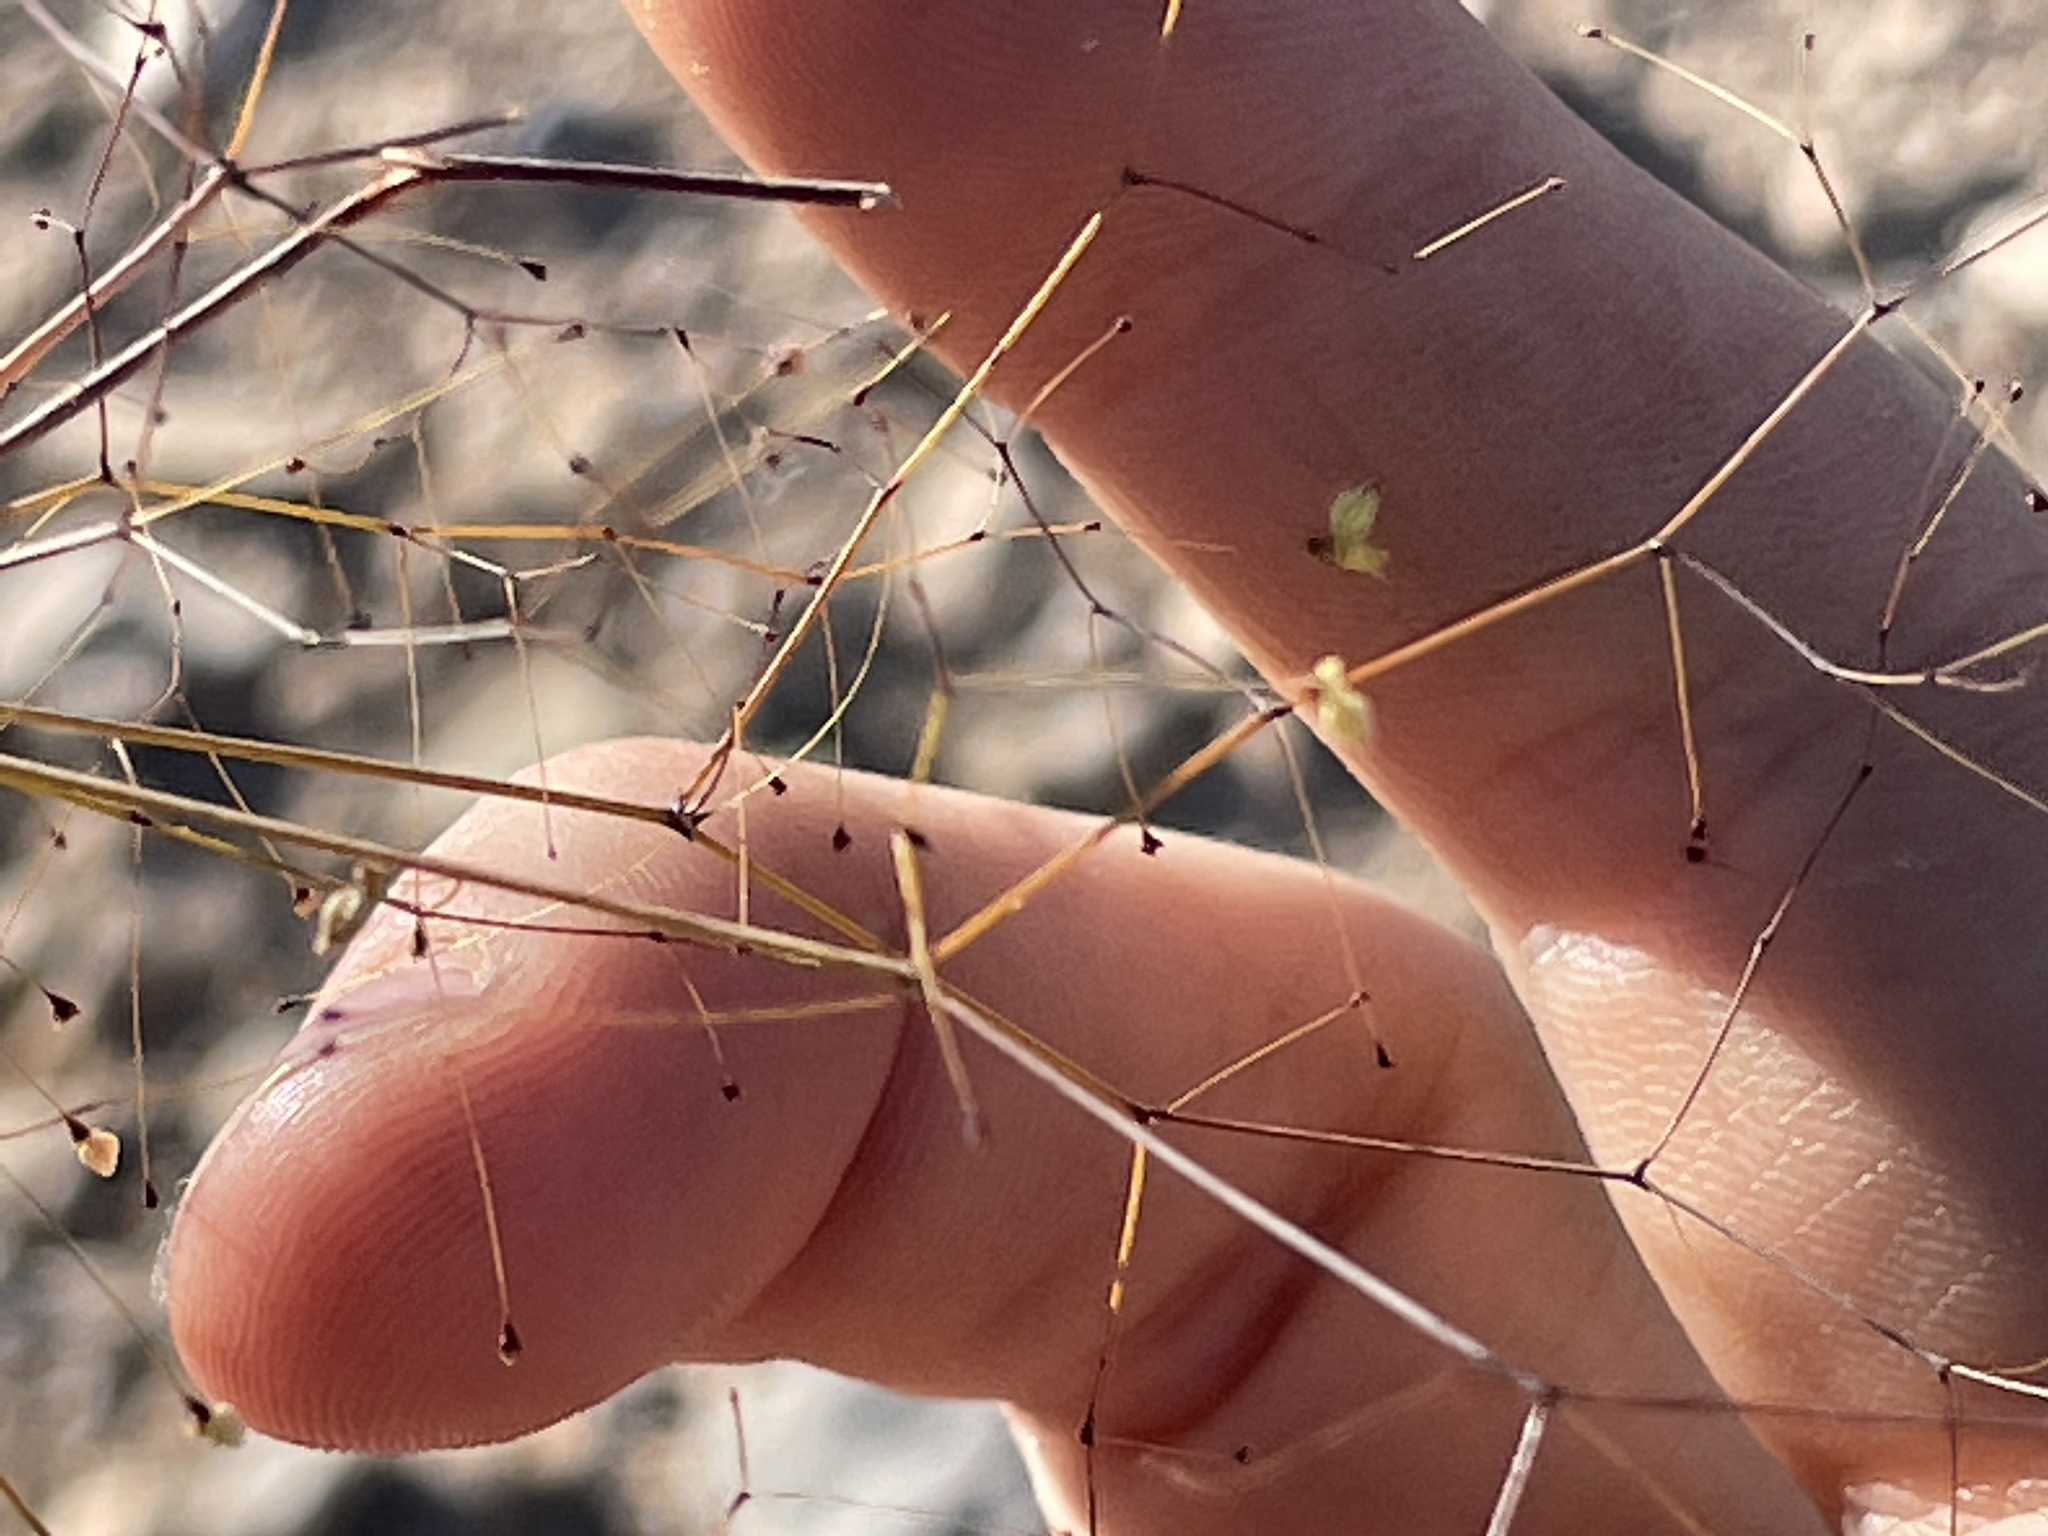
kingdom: Plantae
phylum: Tracheophyta
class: Magnoliopsida
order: Caryophyllales
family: Polygonaceae
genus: Eriogonum
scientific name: Eriogonum trichopes
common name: Little desert trumpet
